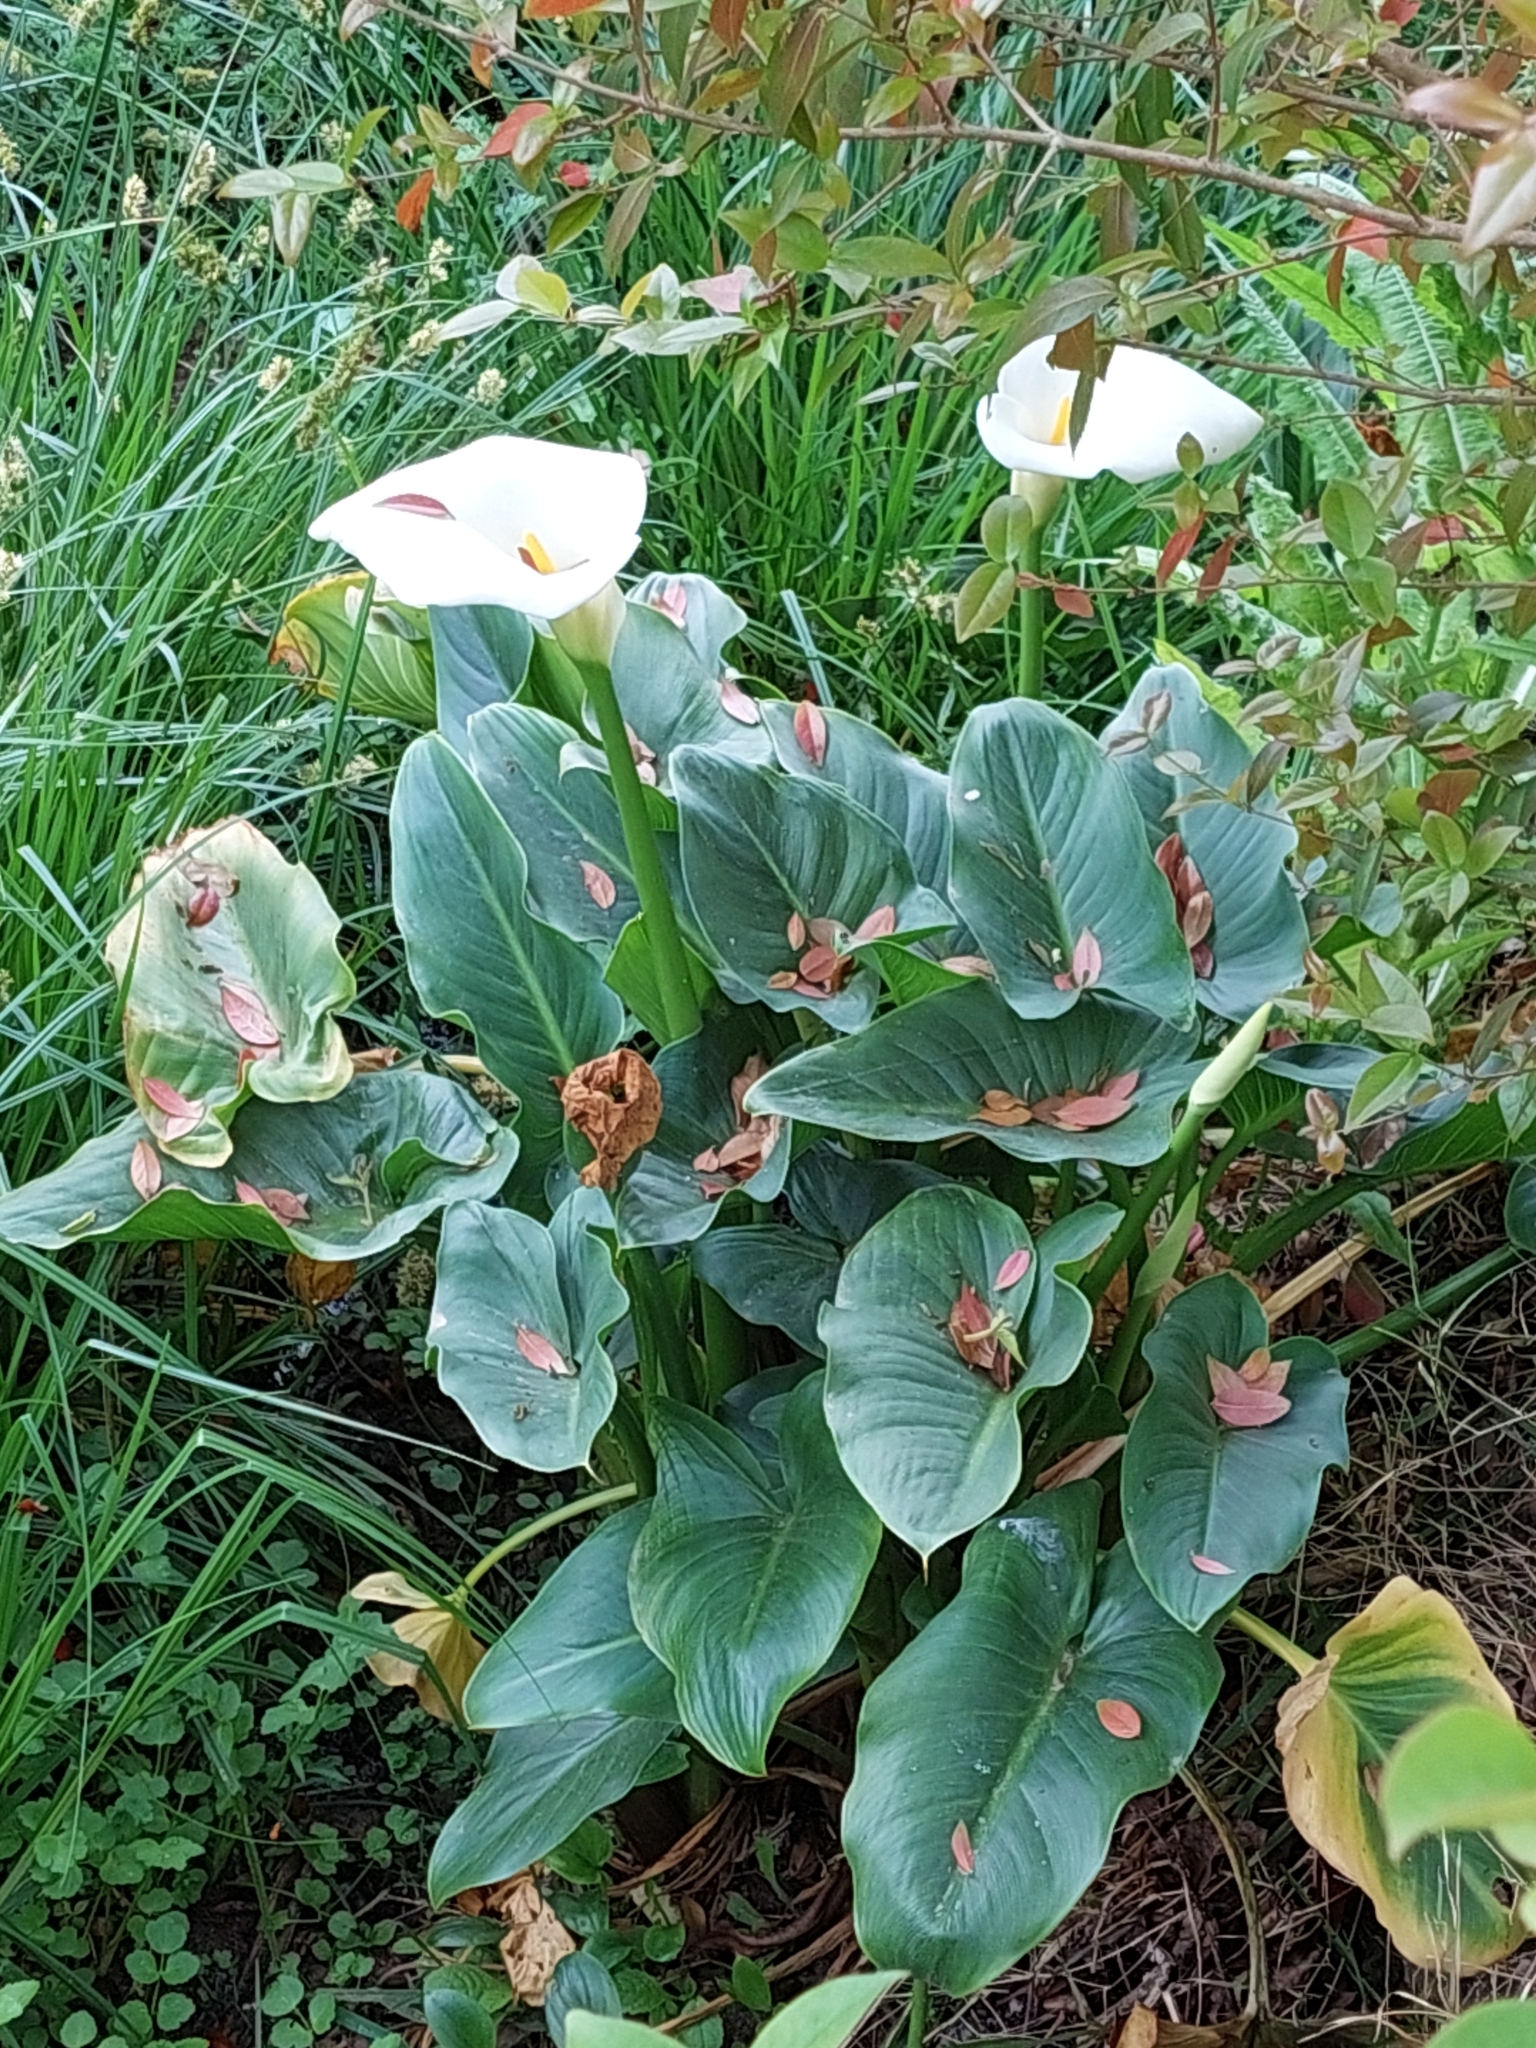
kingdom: Plantae
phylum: Tracheophyta
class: Liliopsida
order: Alismatales
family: Araceae
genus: Zantedeschia
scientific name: Zantedeschia aethiopica
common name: Altar-lily
